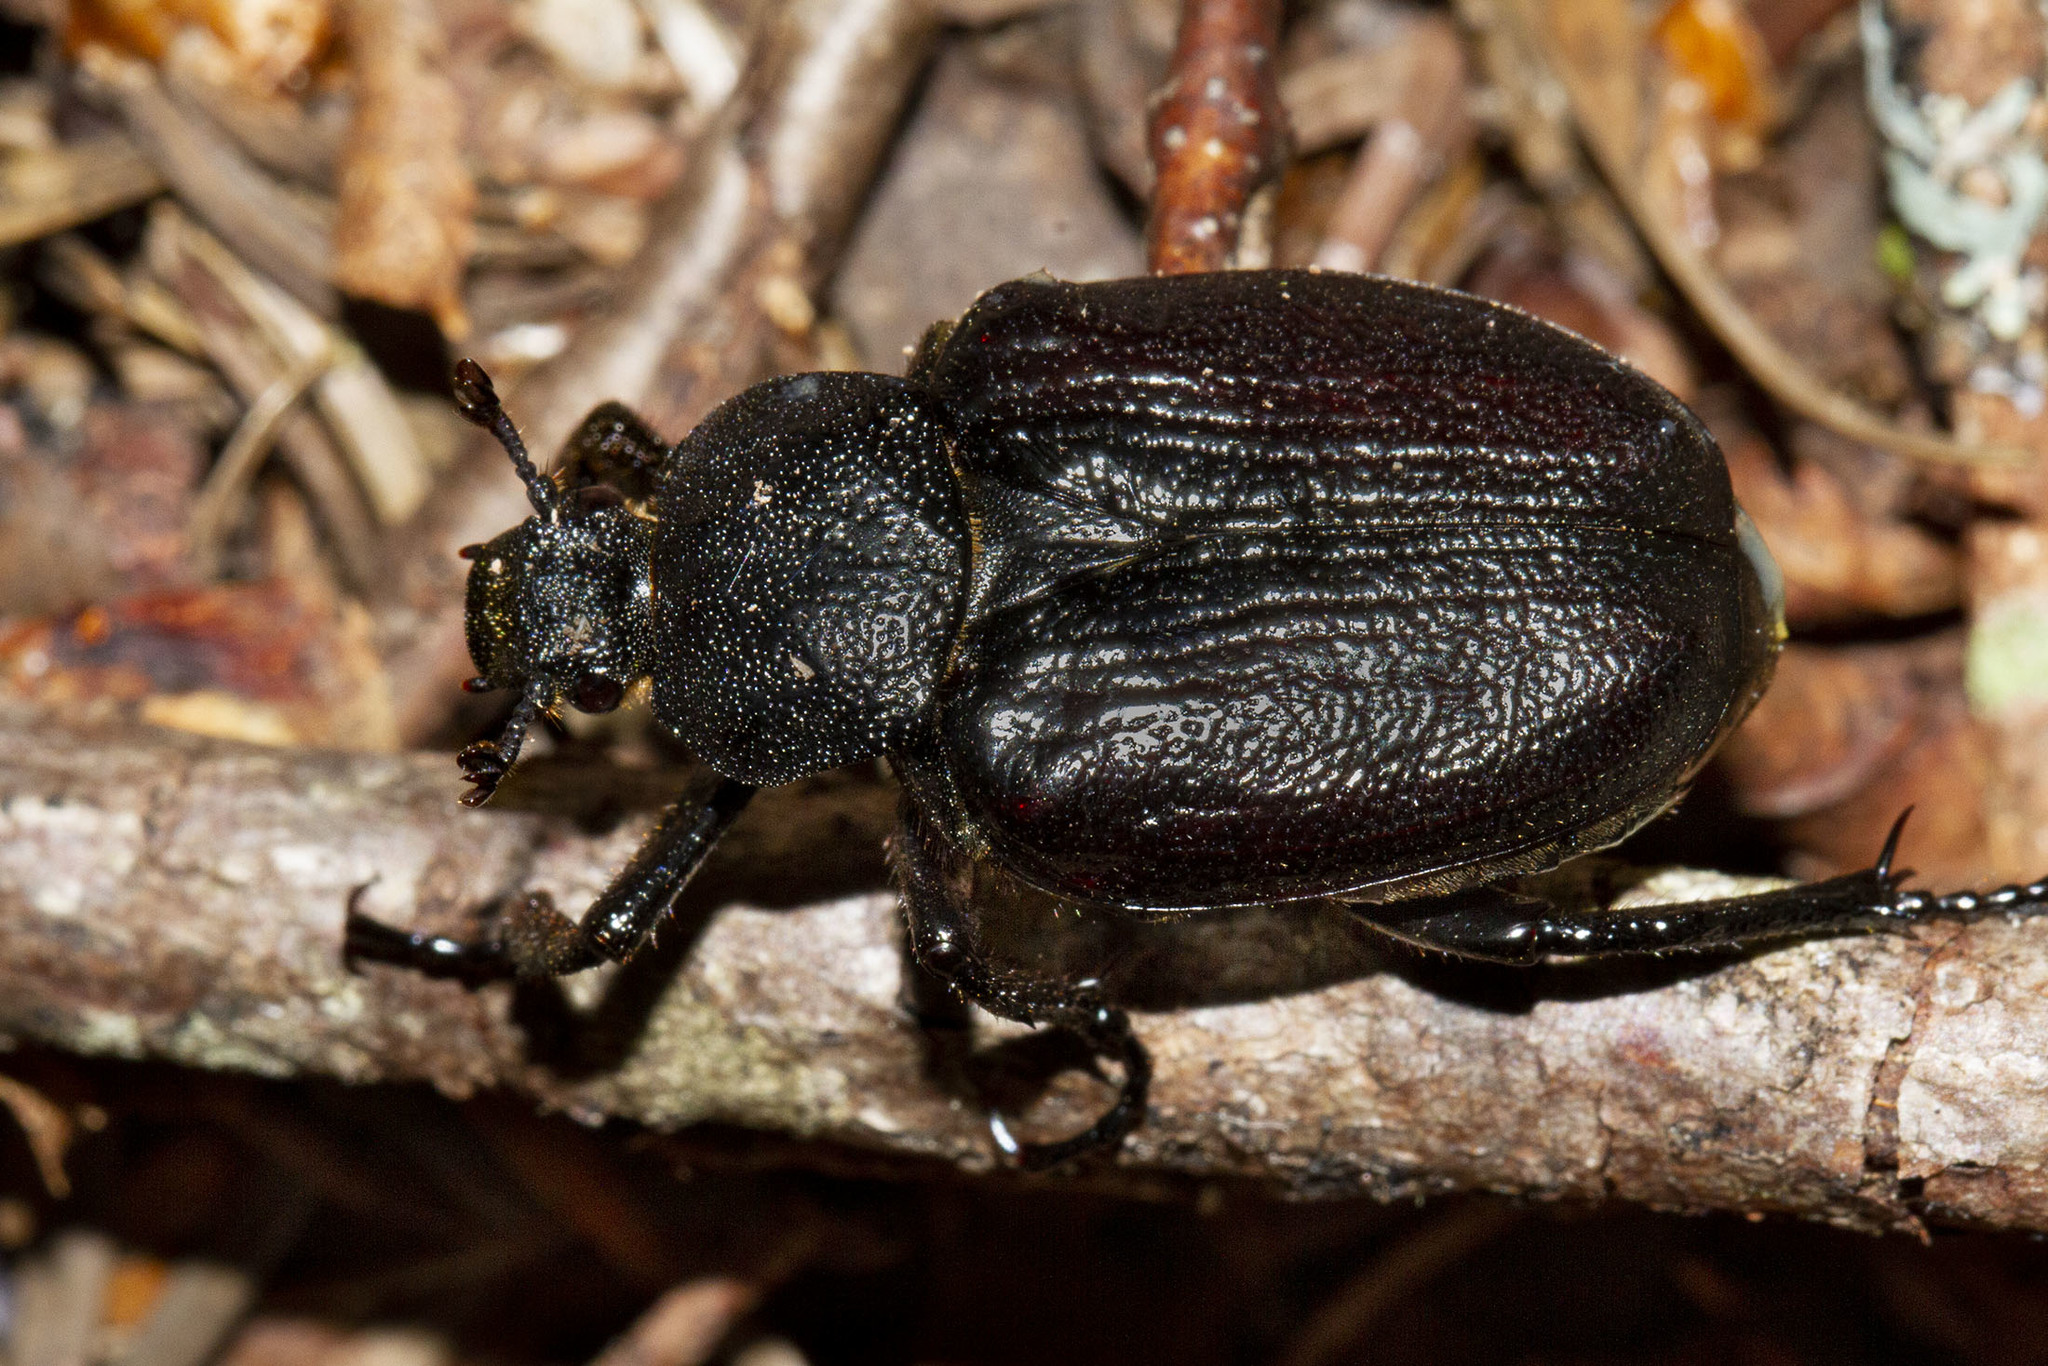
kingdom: Animalia
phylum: Arthropoda
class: Insecta
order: Coleoptera
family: Scarabaeidae
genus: Osmoderma
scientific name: Osmoderma scabra
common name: Rough hermit beetle
